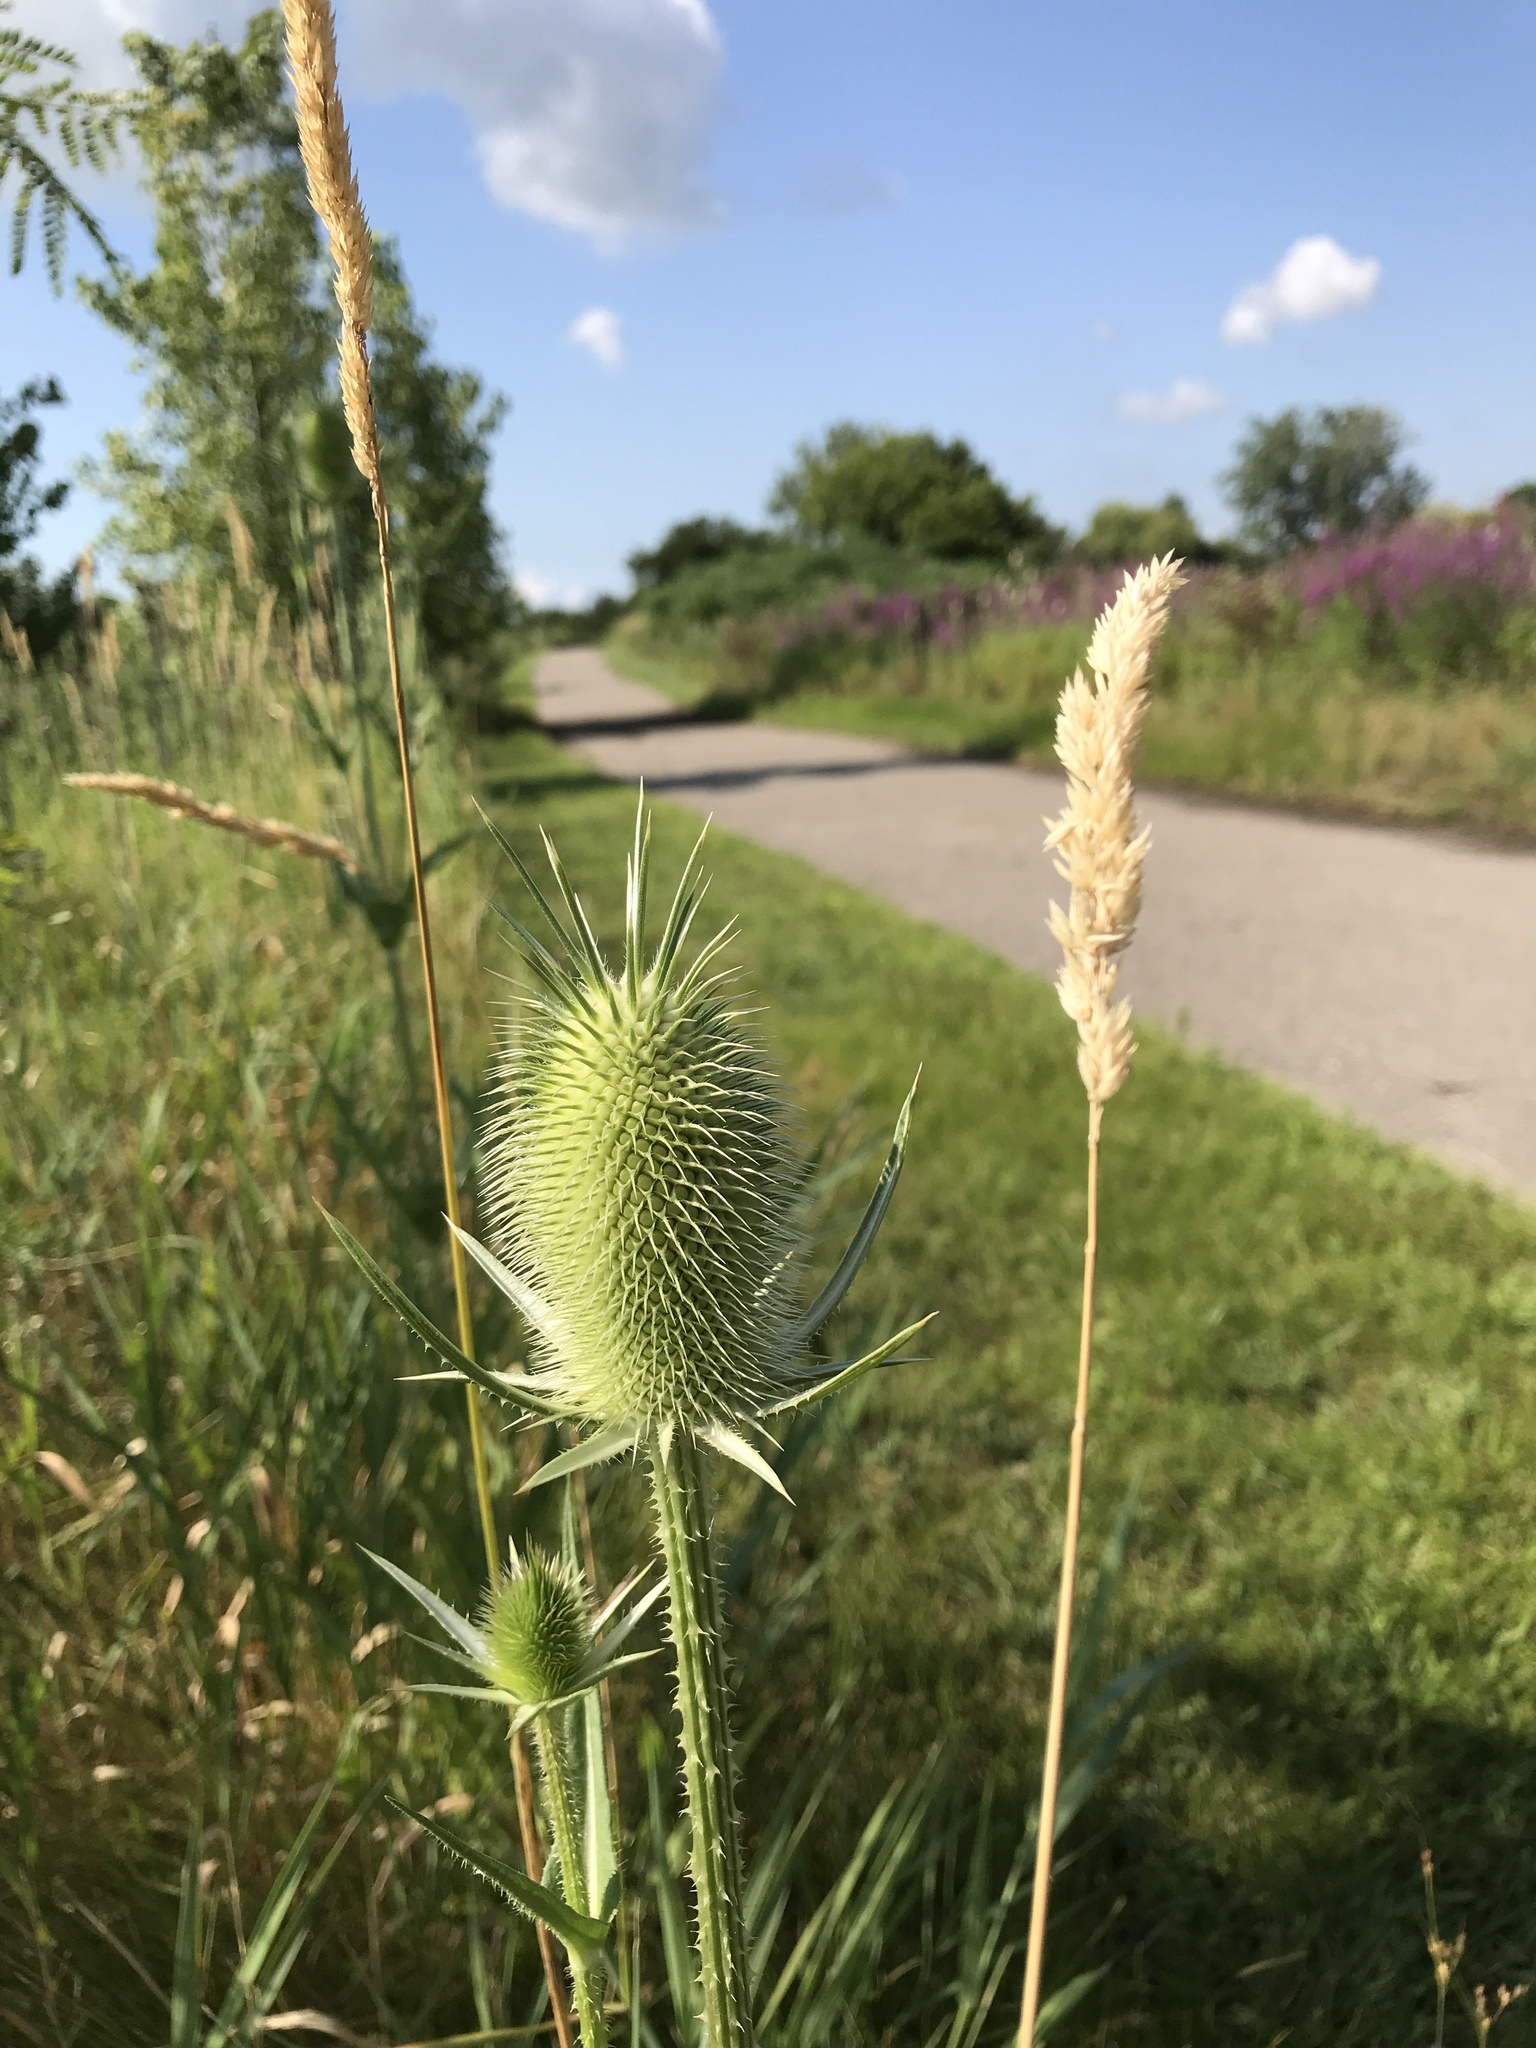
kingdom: Plantae
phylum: Tracheophyta
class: Magnoliopsida
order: Dipsacales
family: Caprifoliaceae
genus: Dipsacus
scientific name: Dipsacus laciniatus
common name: Cut-leaved teasel
